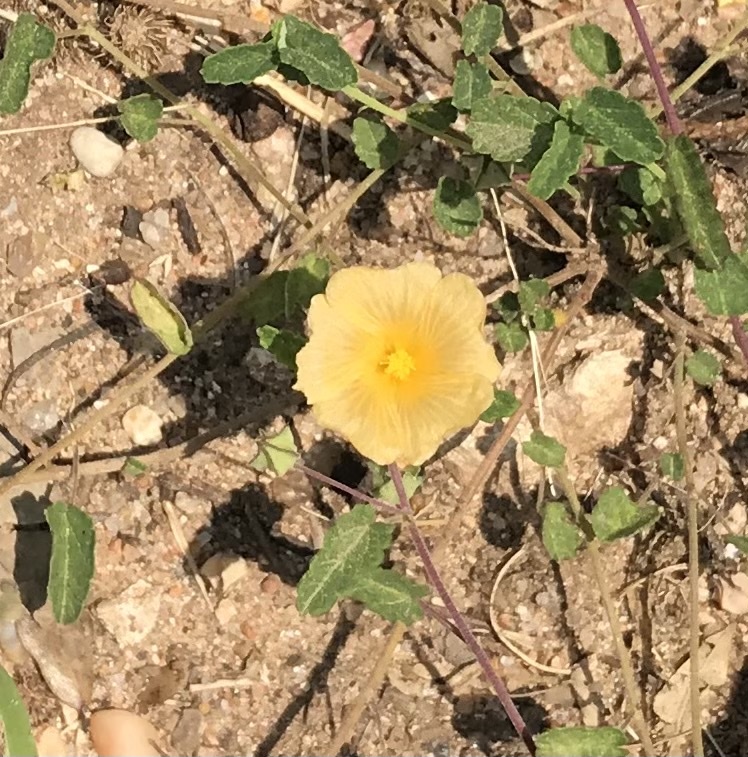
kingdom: Plantae
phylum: Tracheophyta
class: Magnoliopsida
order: Malvales
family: Malvaceae
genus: Sida
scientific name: Sida abutilifolia
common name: Spreading fanpetals
